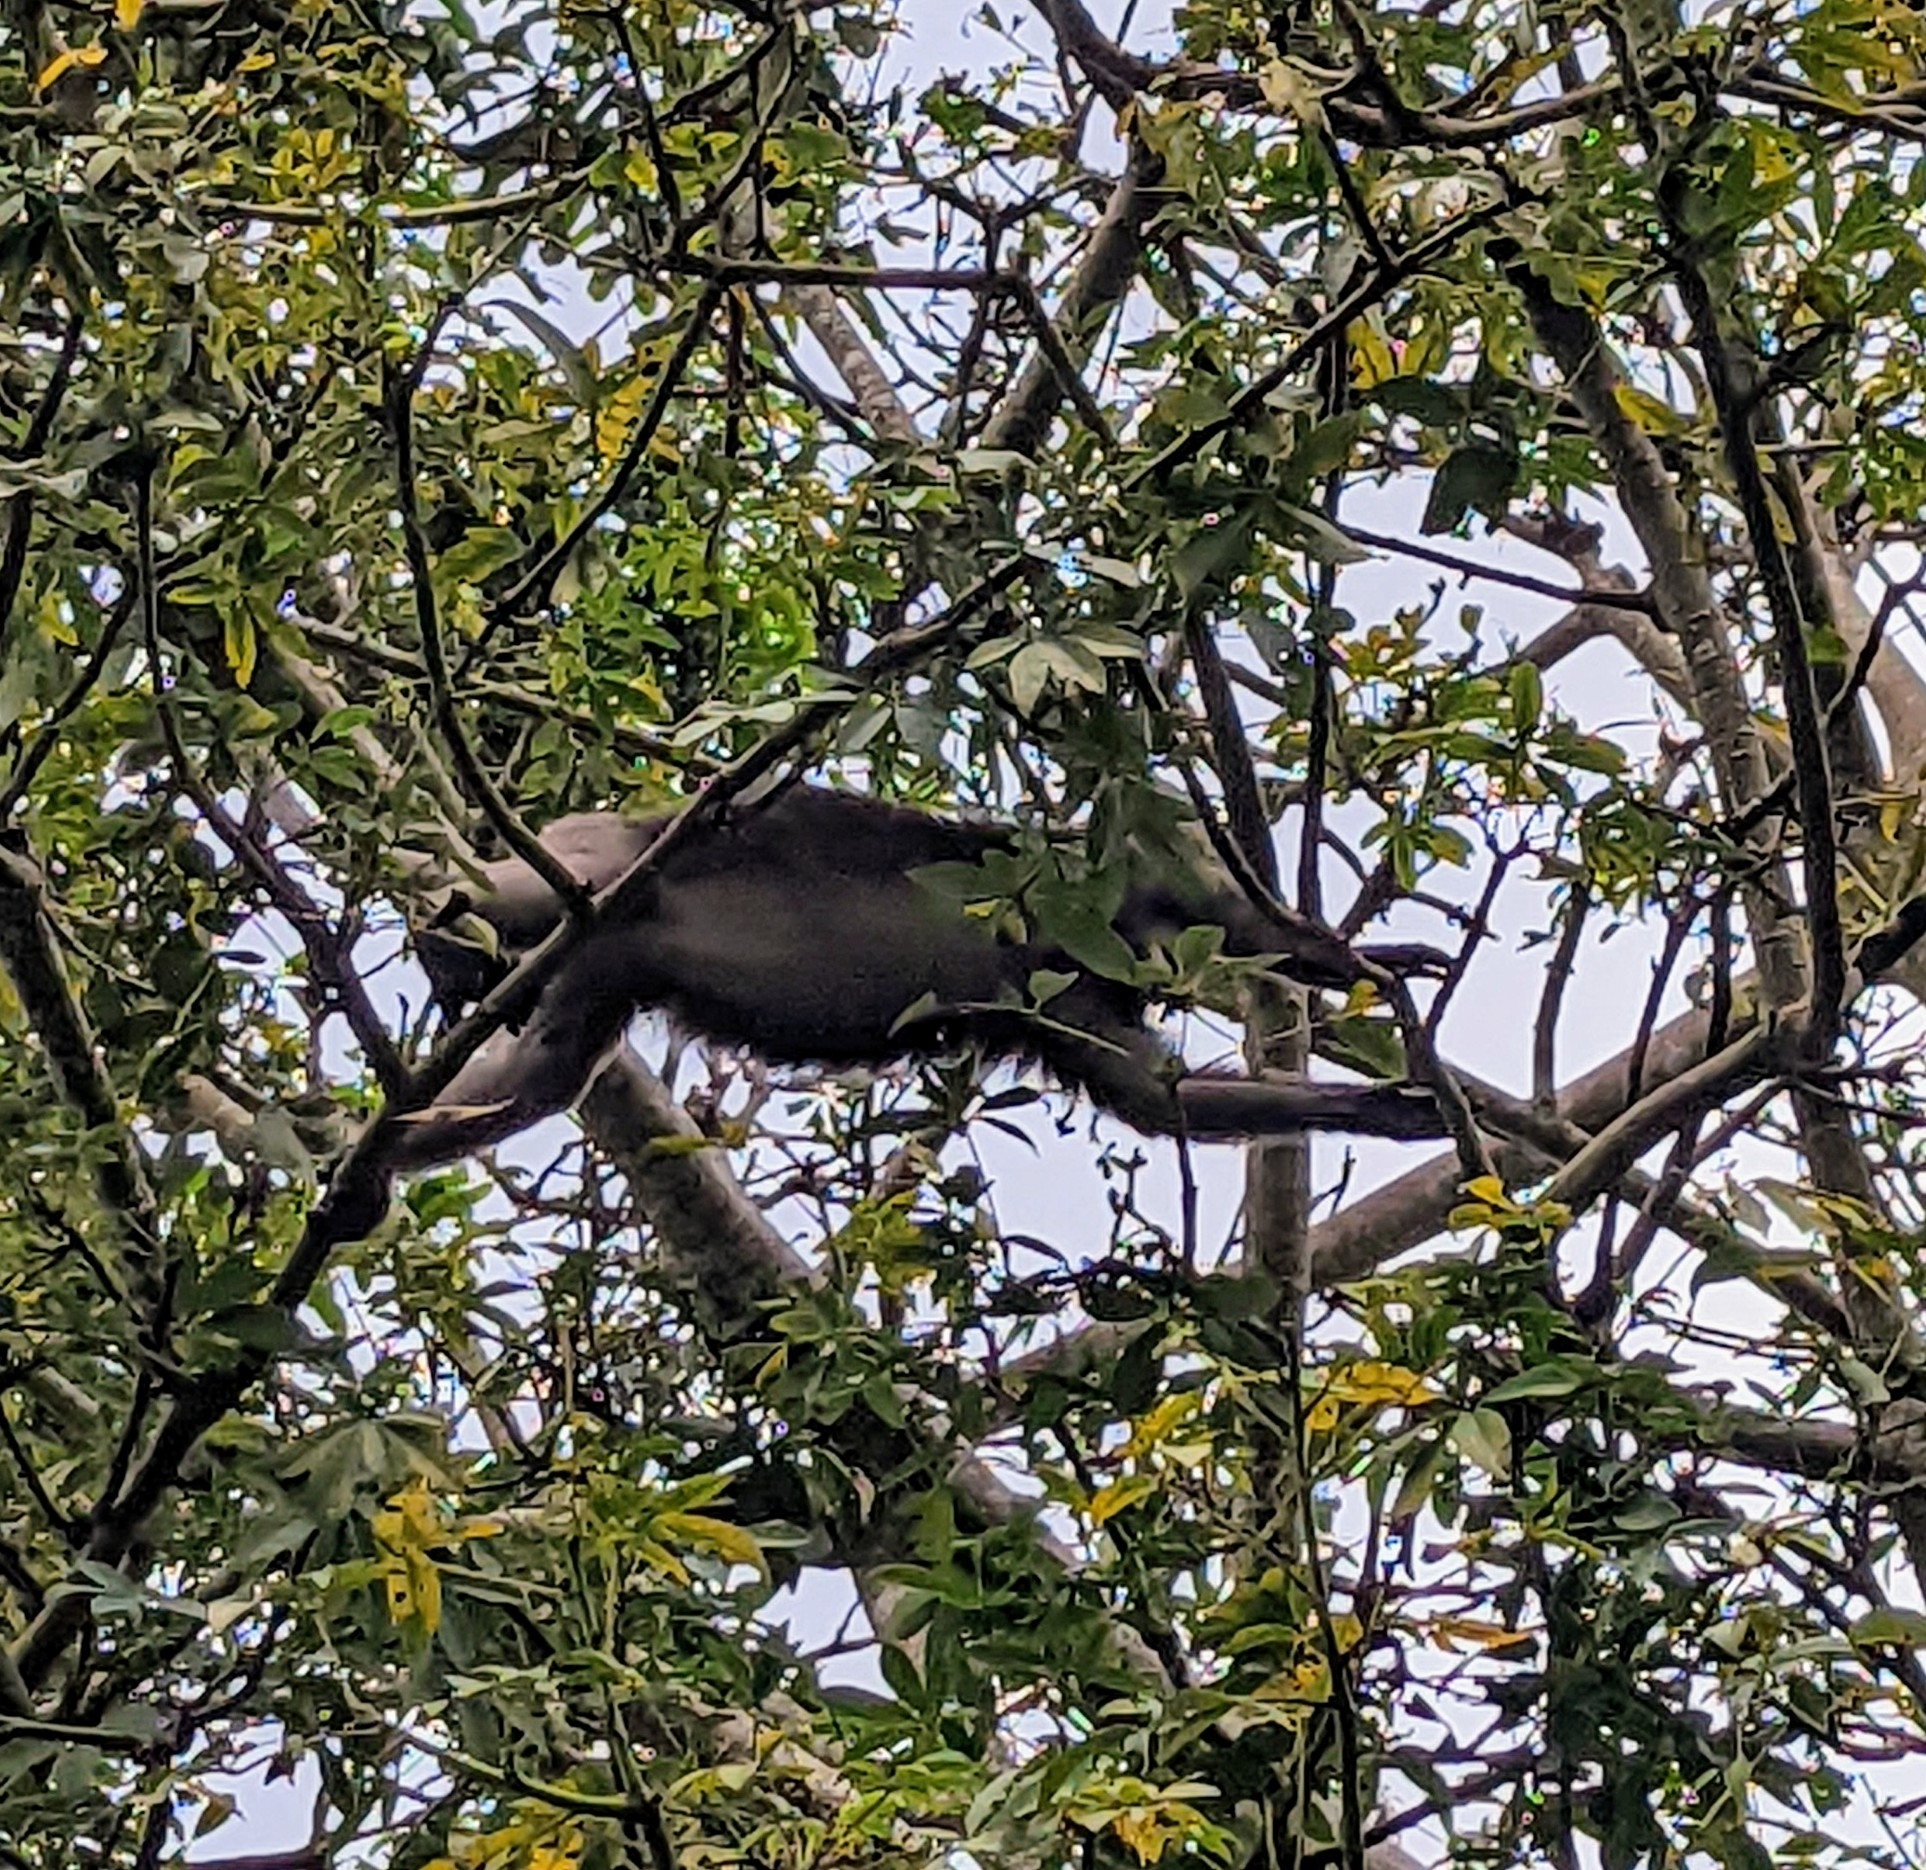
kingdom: Animalia
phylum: Chordata
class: Mammalia
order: Primates
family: Cercopithecidae
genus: Trachypithecus
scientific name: Trachypithecus obscurus
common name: Dusky leaf-monkey
